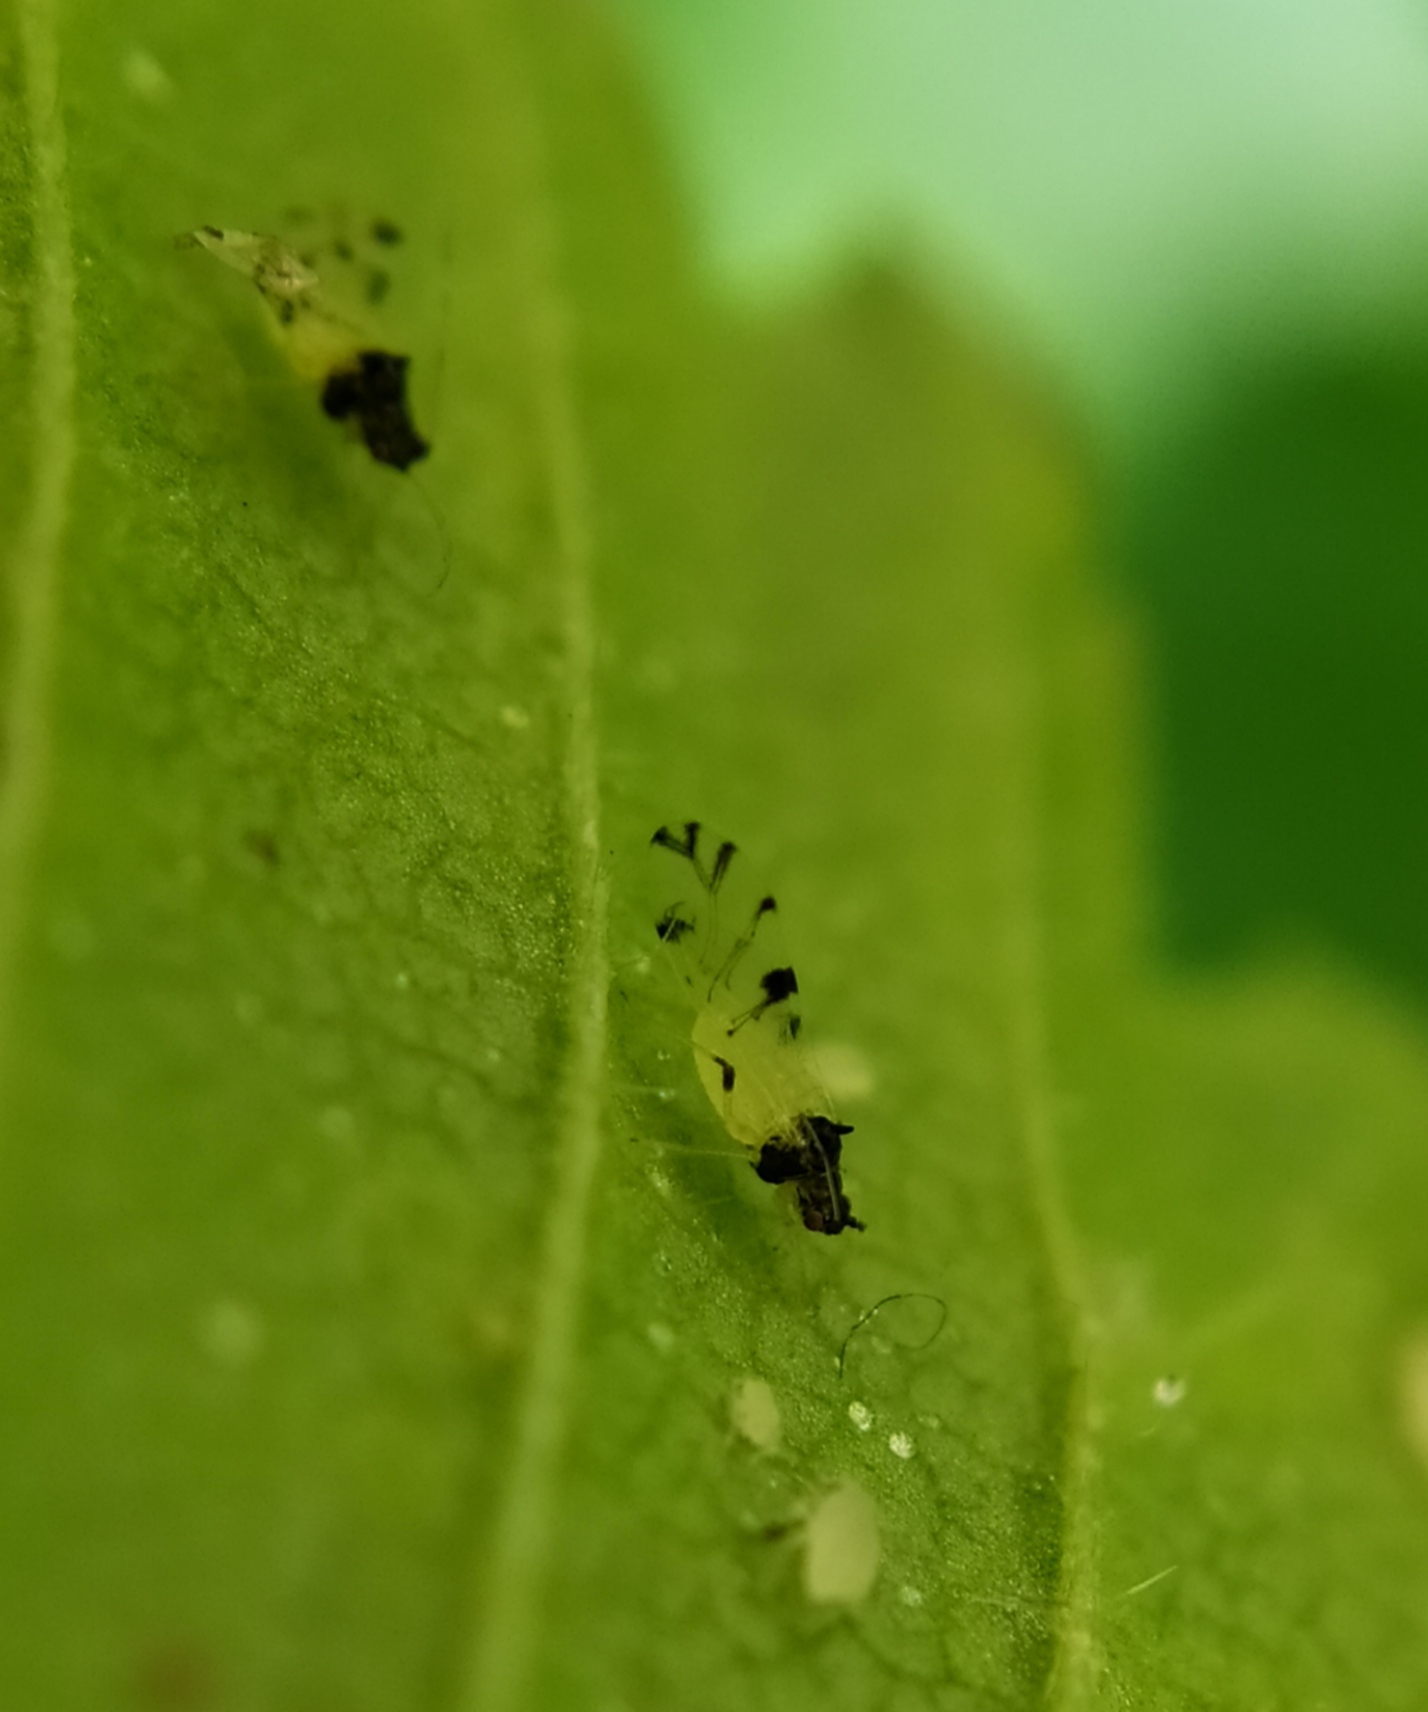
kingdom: Animalia
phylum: Arthropoda
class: Insecta
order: Hemiptera
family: Aphididae
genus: Tinocallis
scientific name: Tinocallis takachihoensis
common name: Aphid
